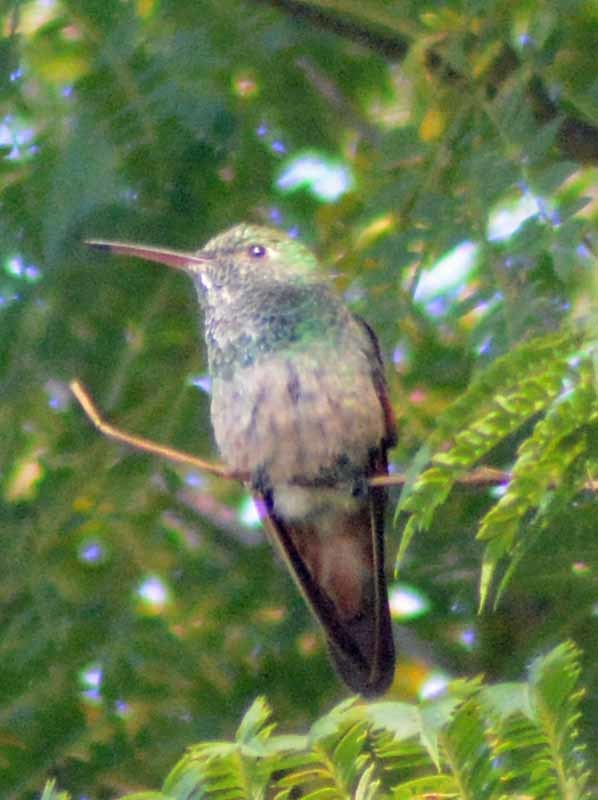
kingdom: Animalia
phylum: Chordata
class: Aves
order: Apodiformes
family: Trochilidae
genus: Saucerottia
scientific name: Saucerottia beryllina
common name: Berylline hummingbird
